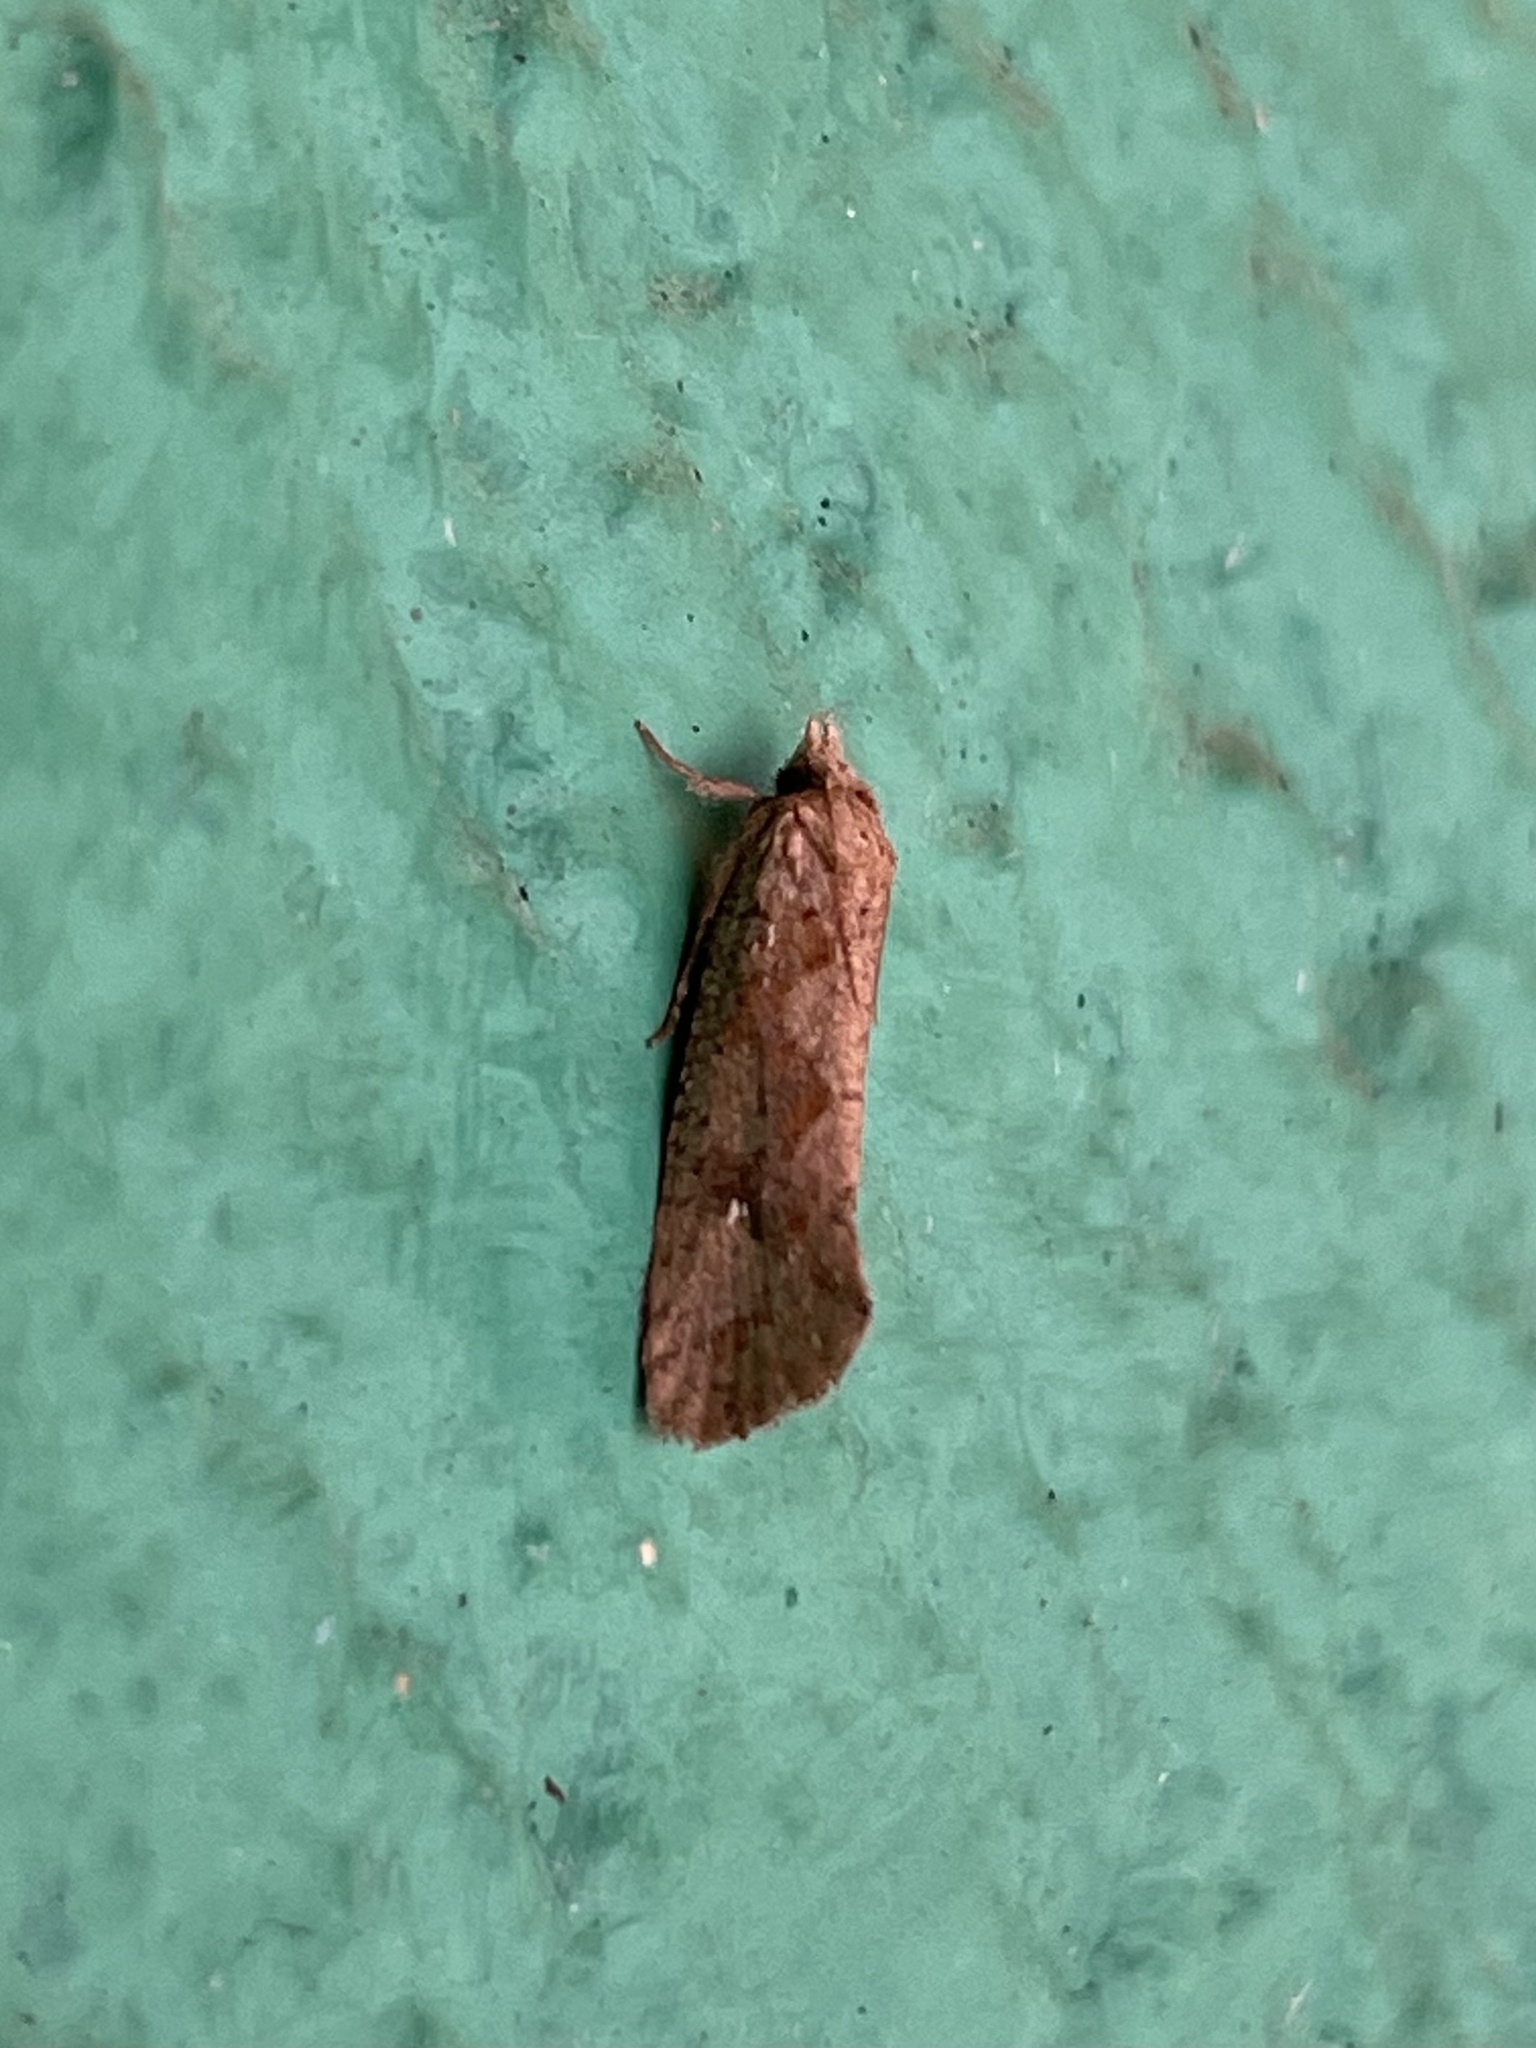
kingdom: Animalia
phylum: Arthropoda
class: Insecta
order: Lepidoptera
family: Tineidae
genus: Acrolophus
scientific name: Acrolophus walsinghami
